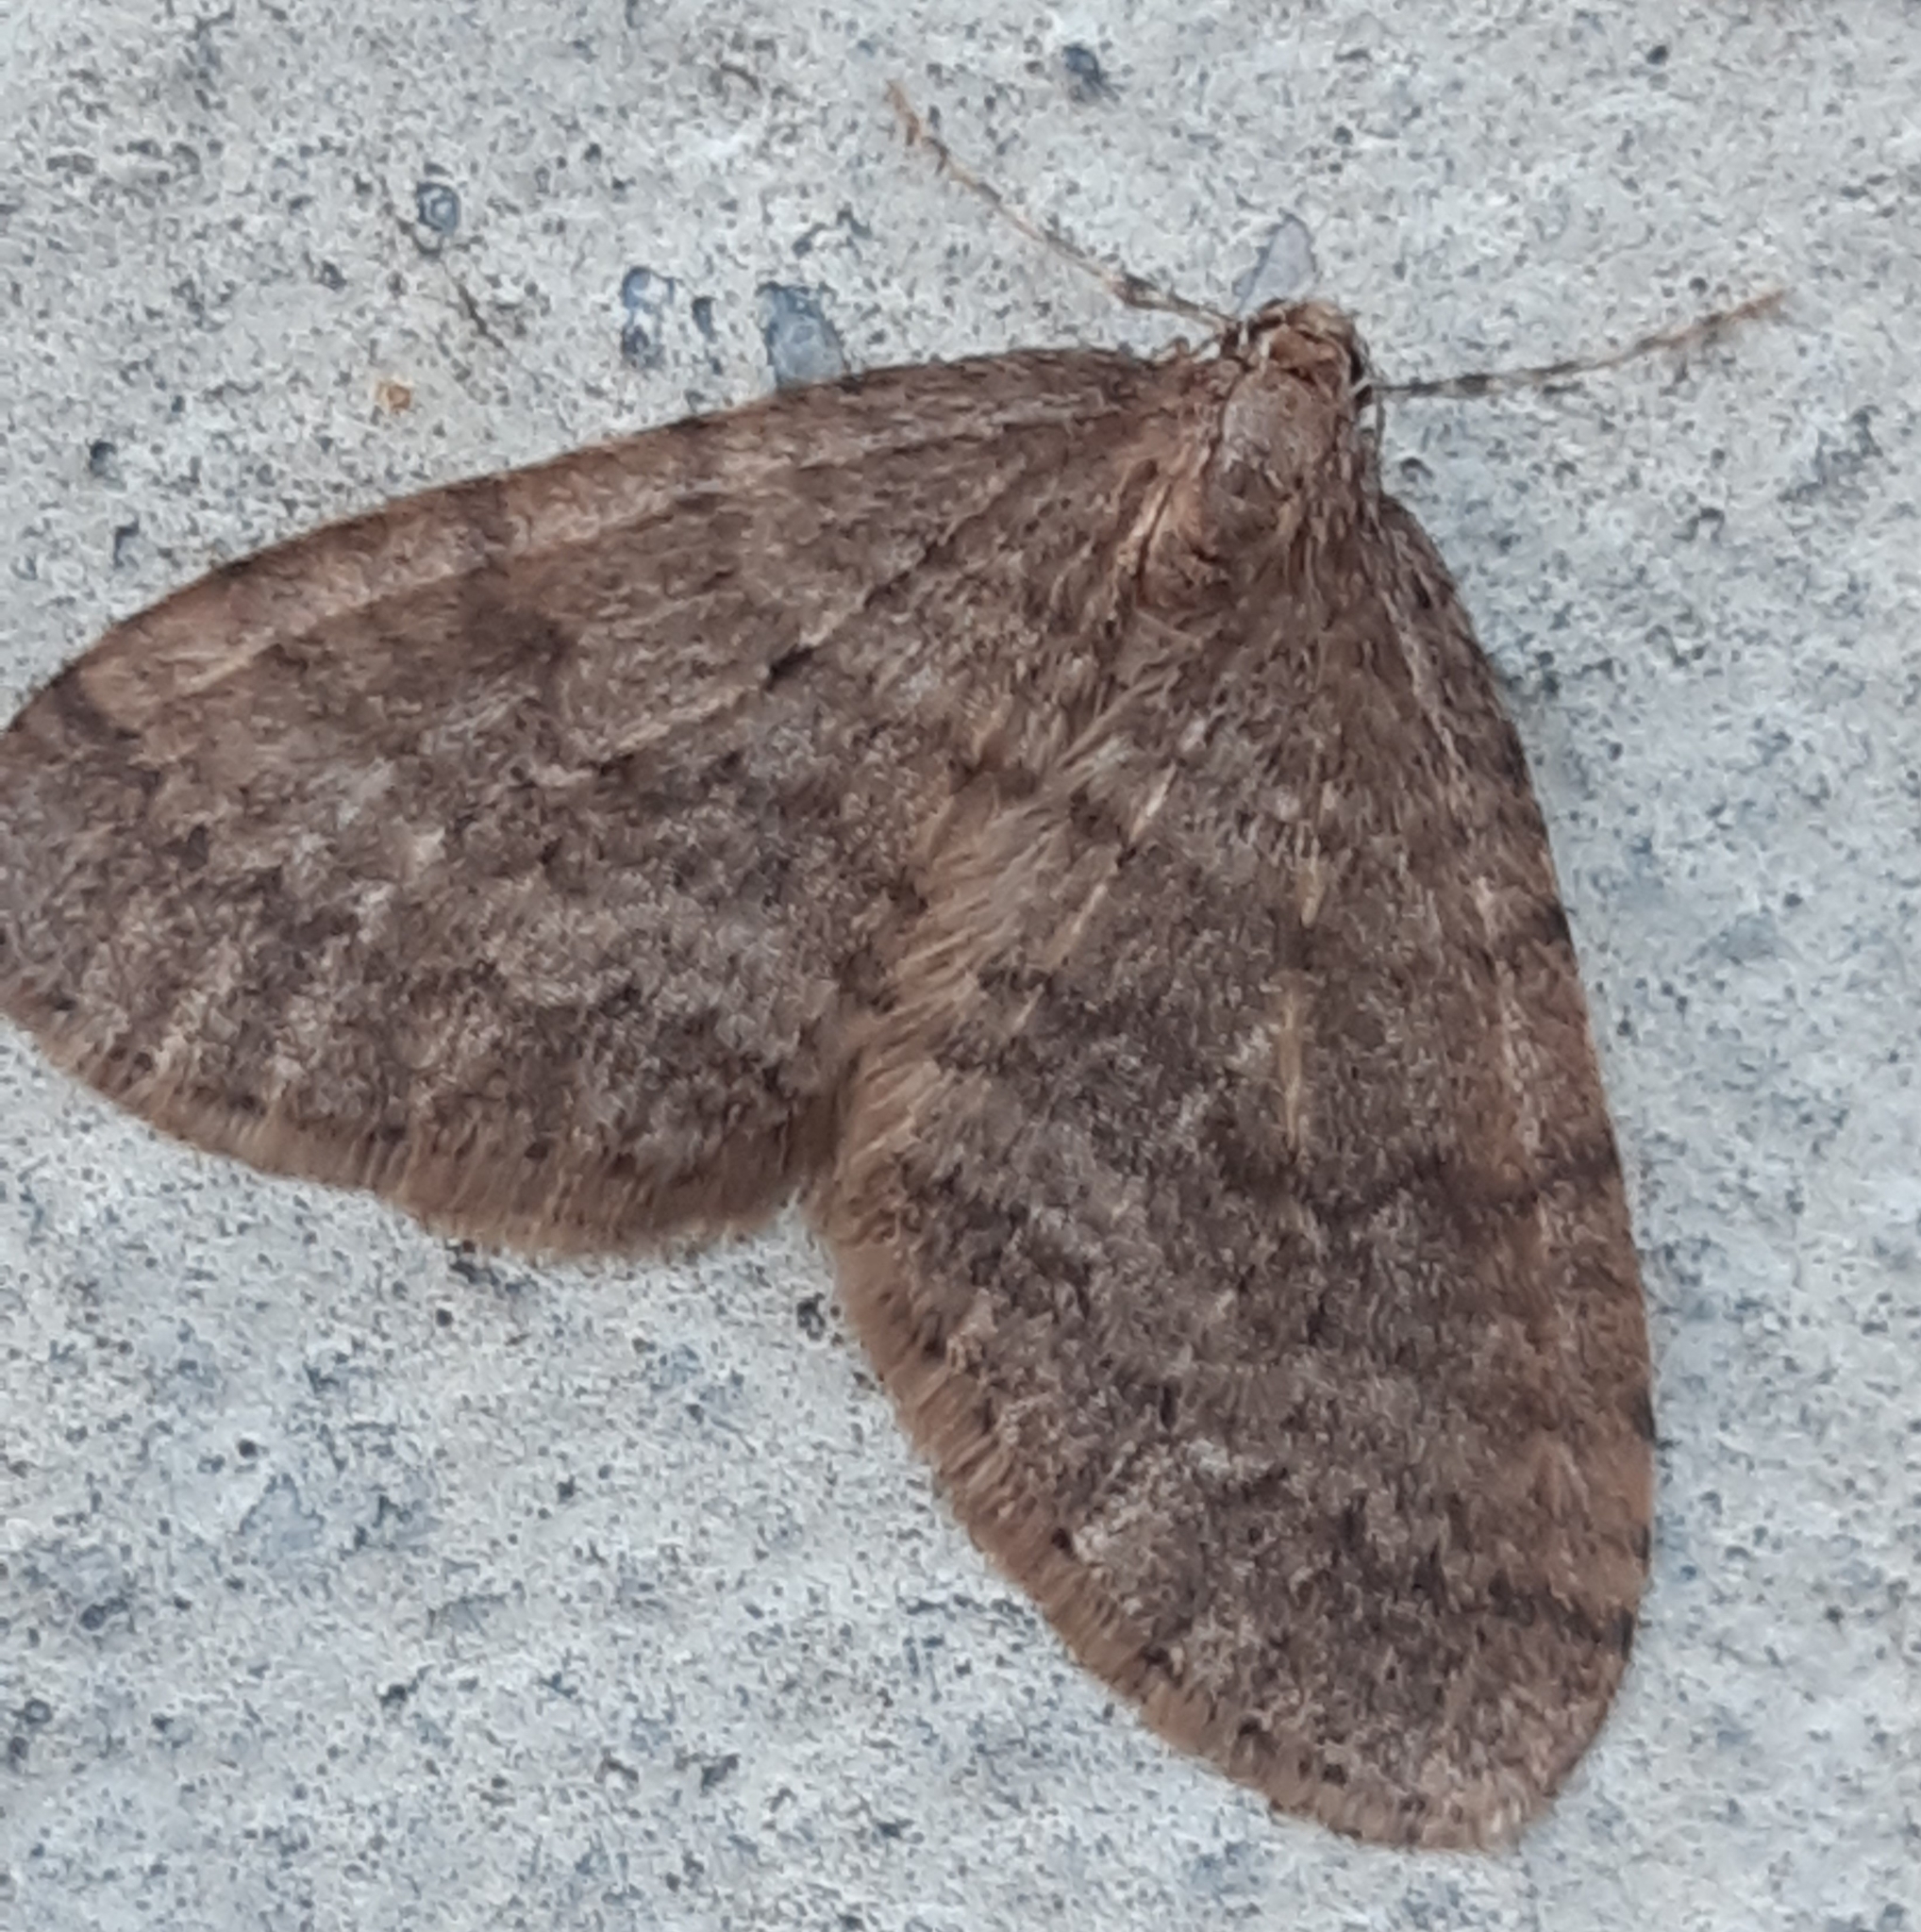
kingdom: Animalia
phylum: Arthropoda
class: Insecta
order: Lepidoptera
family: Geometridae
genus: Operophtera
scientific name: Operophtera brumata
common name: Winter moth
